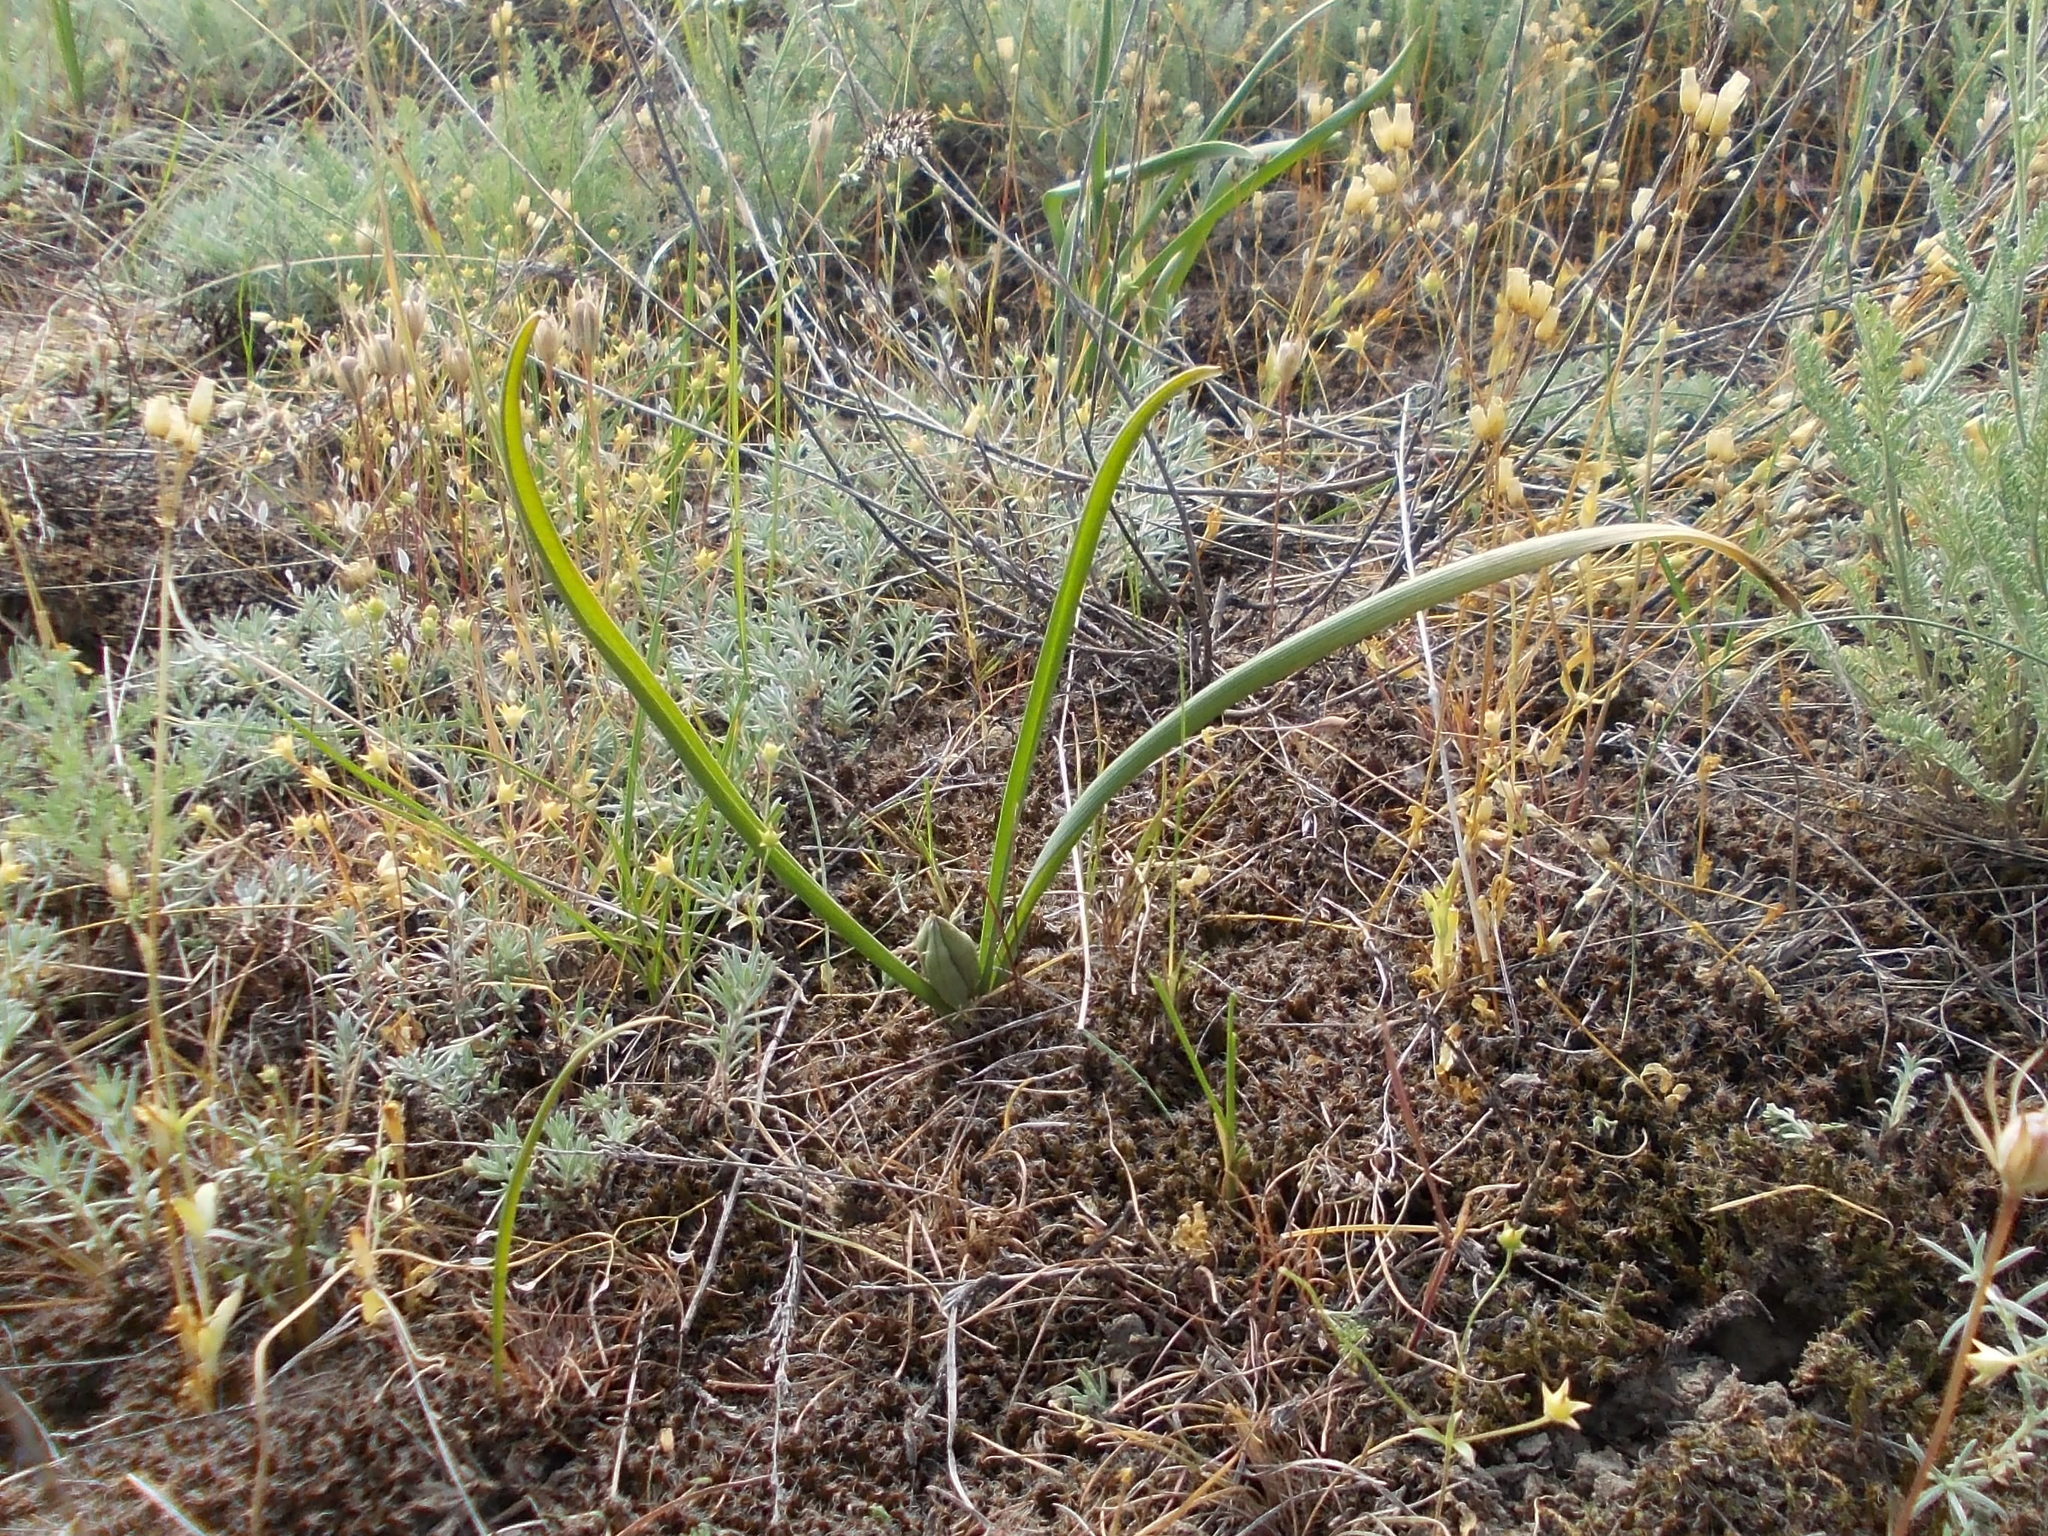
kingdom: Plantae
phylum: Tracheophyta
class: Liliopsida
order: Liliales
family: Colchicaceae
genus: Colchicum
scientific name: Colchicum laetum
